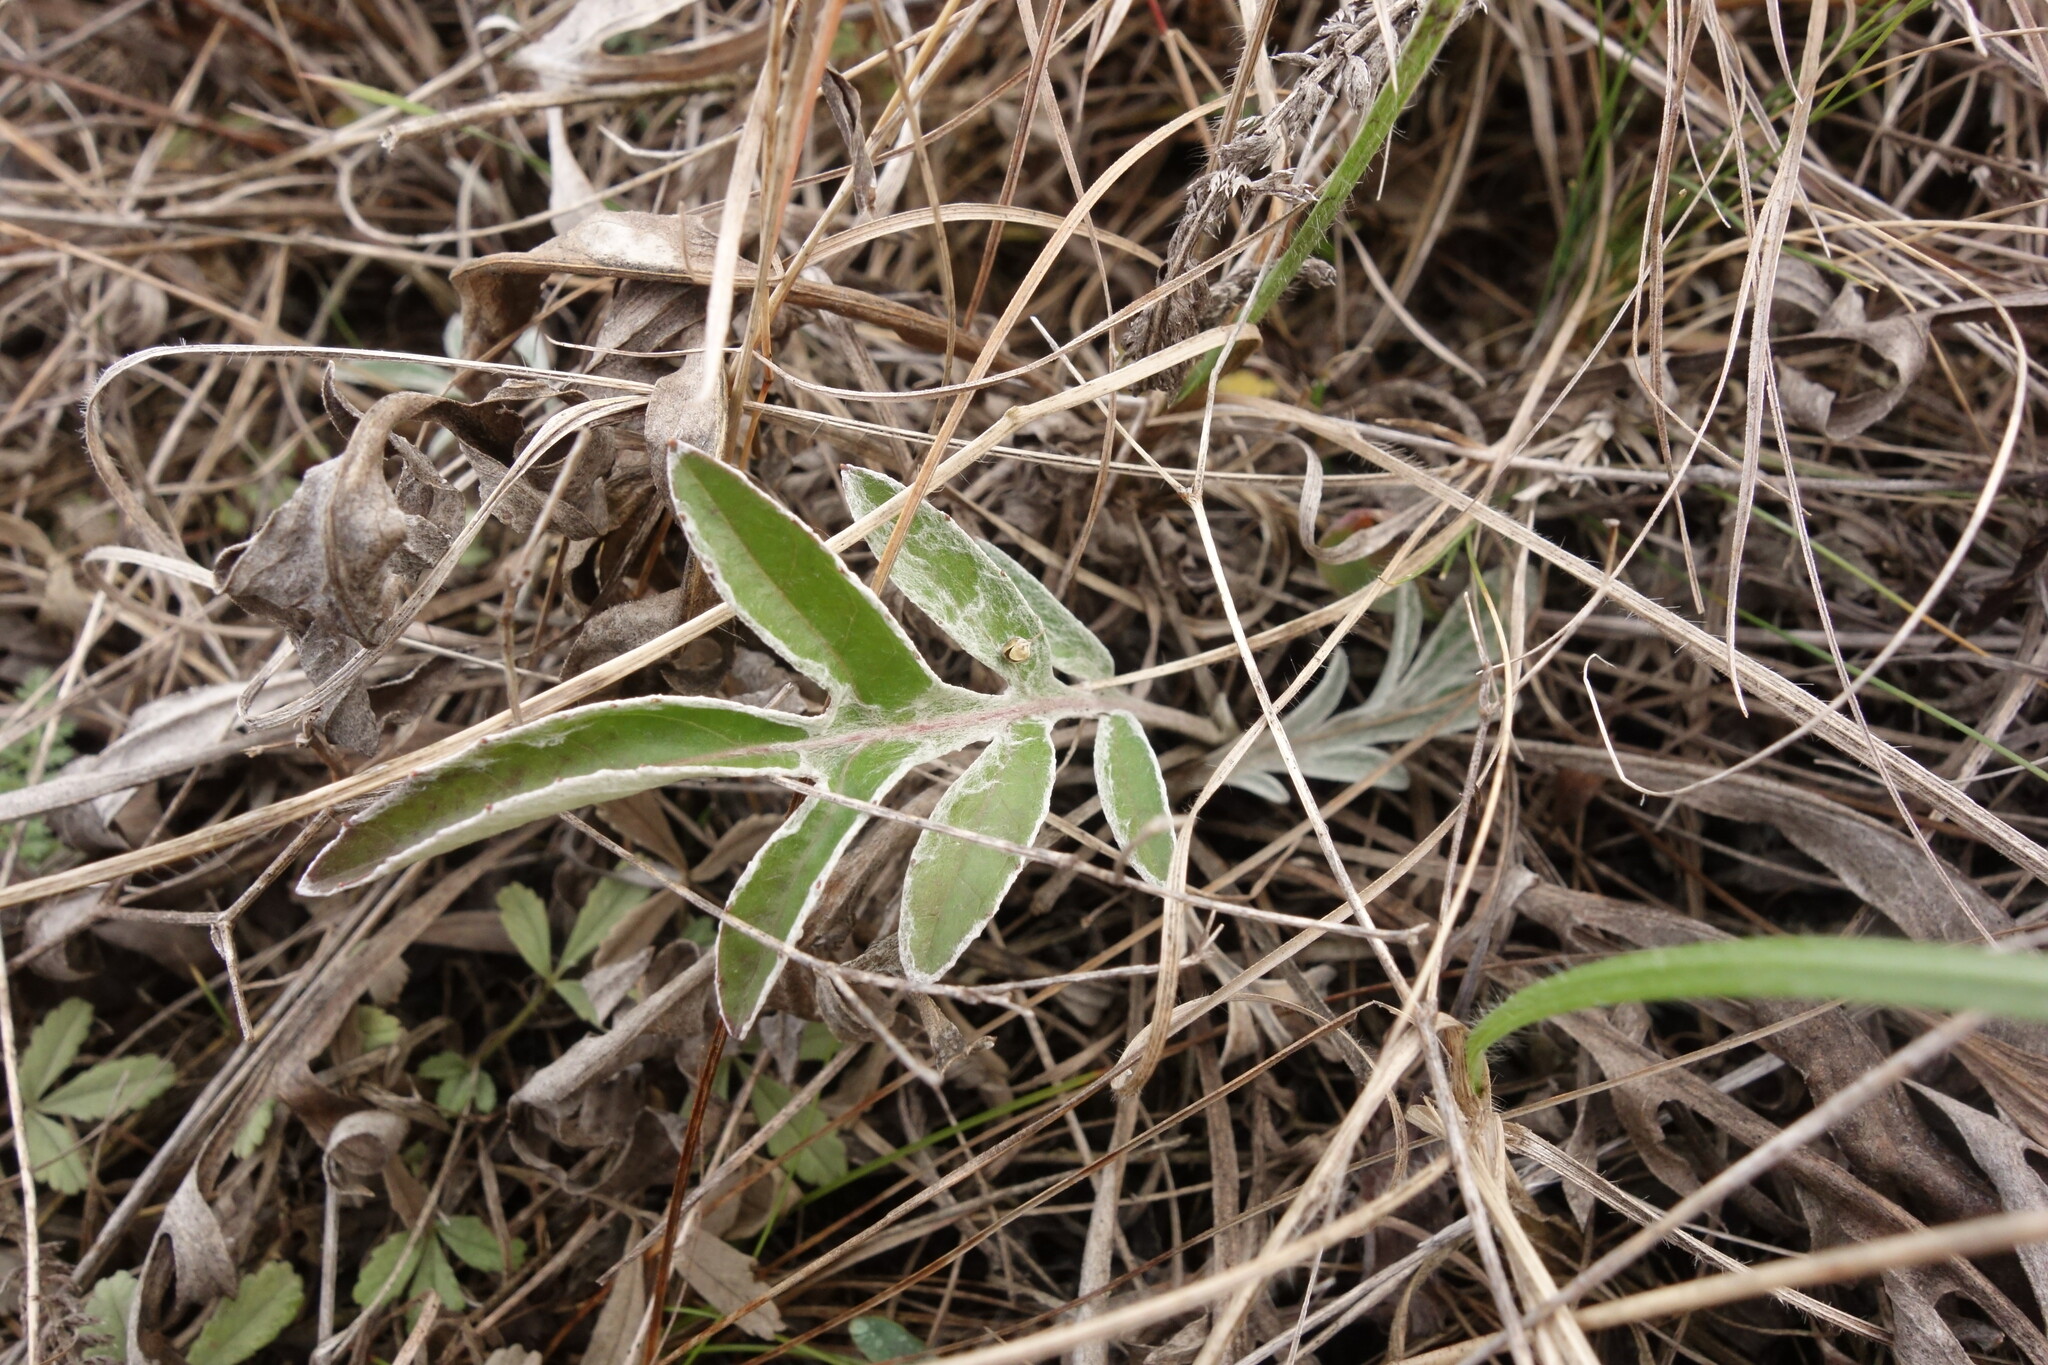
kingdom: Plantae
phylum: Tracheophyta
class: Magnoliopsida
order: Asterales
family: Asteraceae
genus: Psephellus
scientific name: Psephellus sumensis
